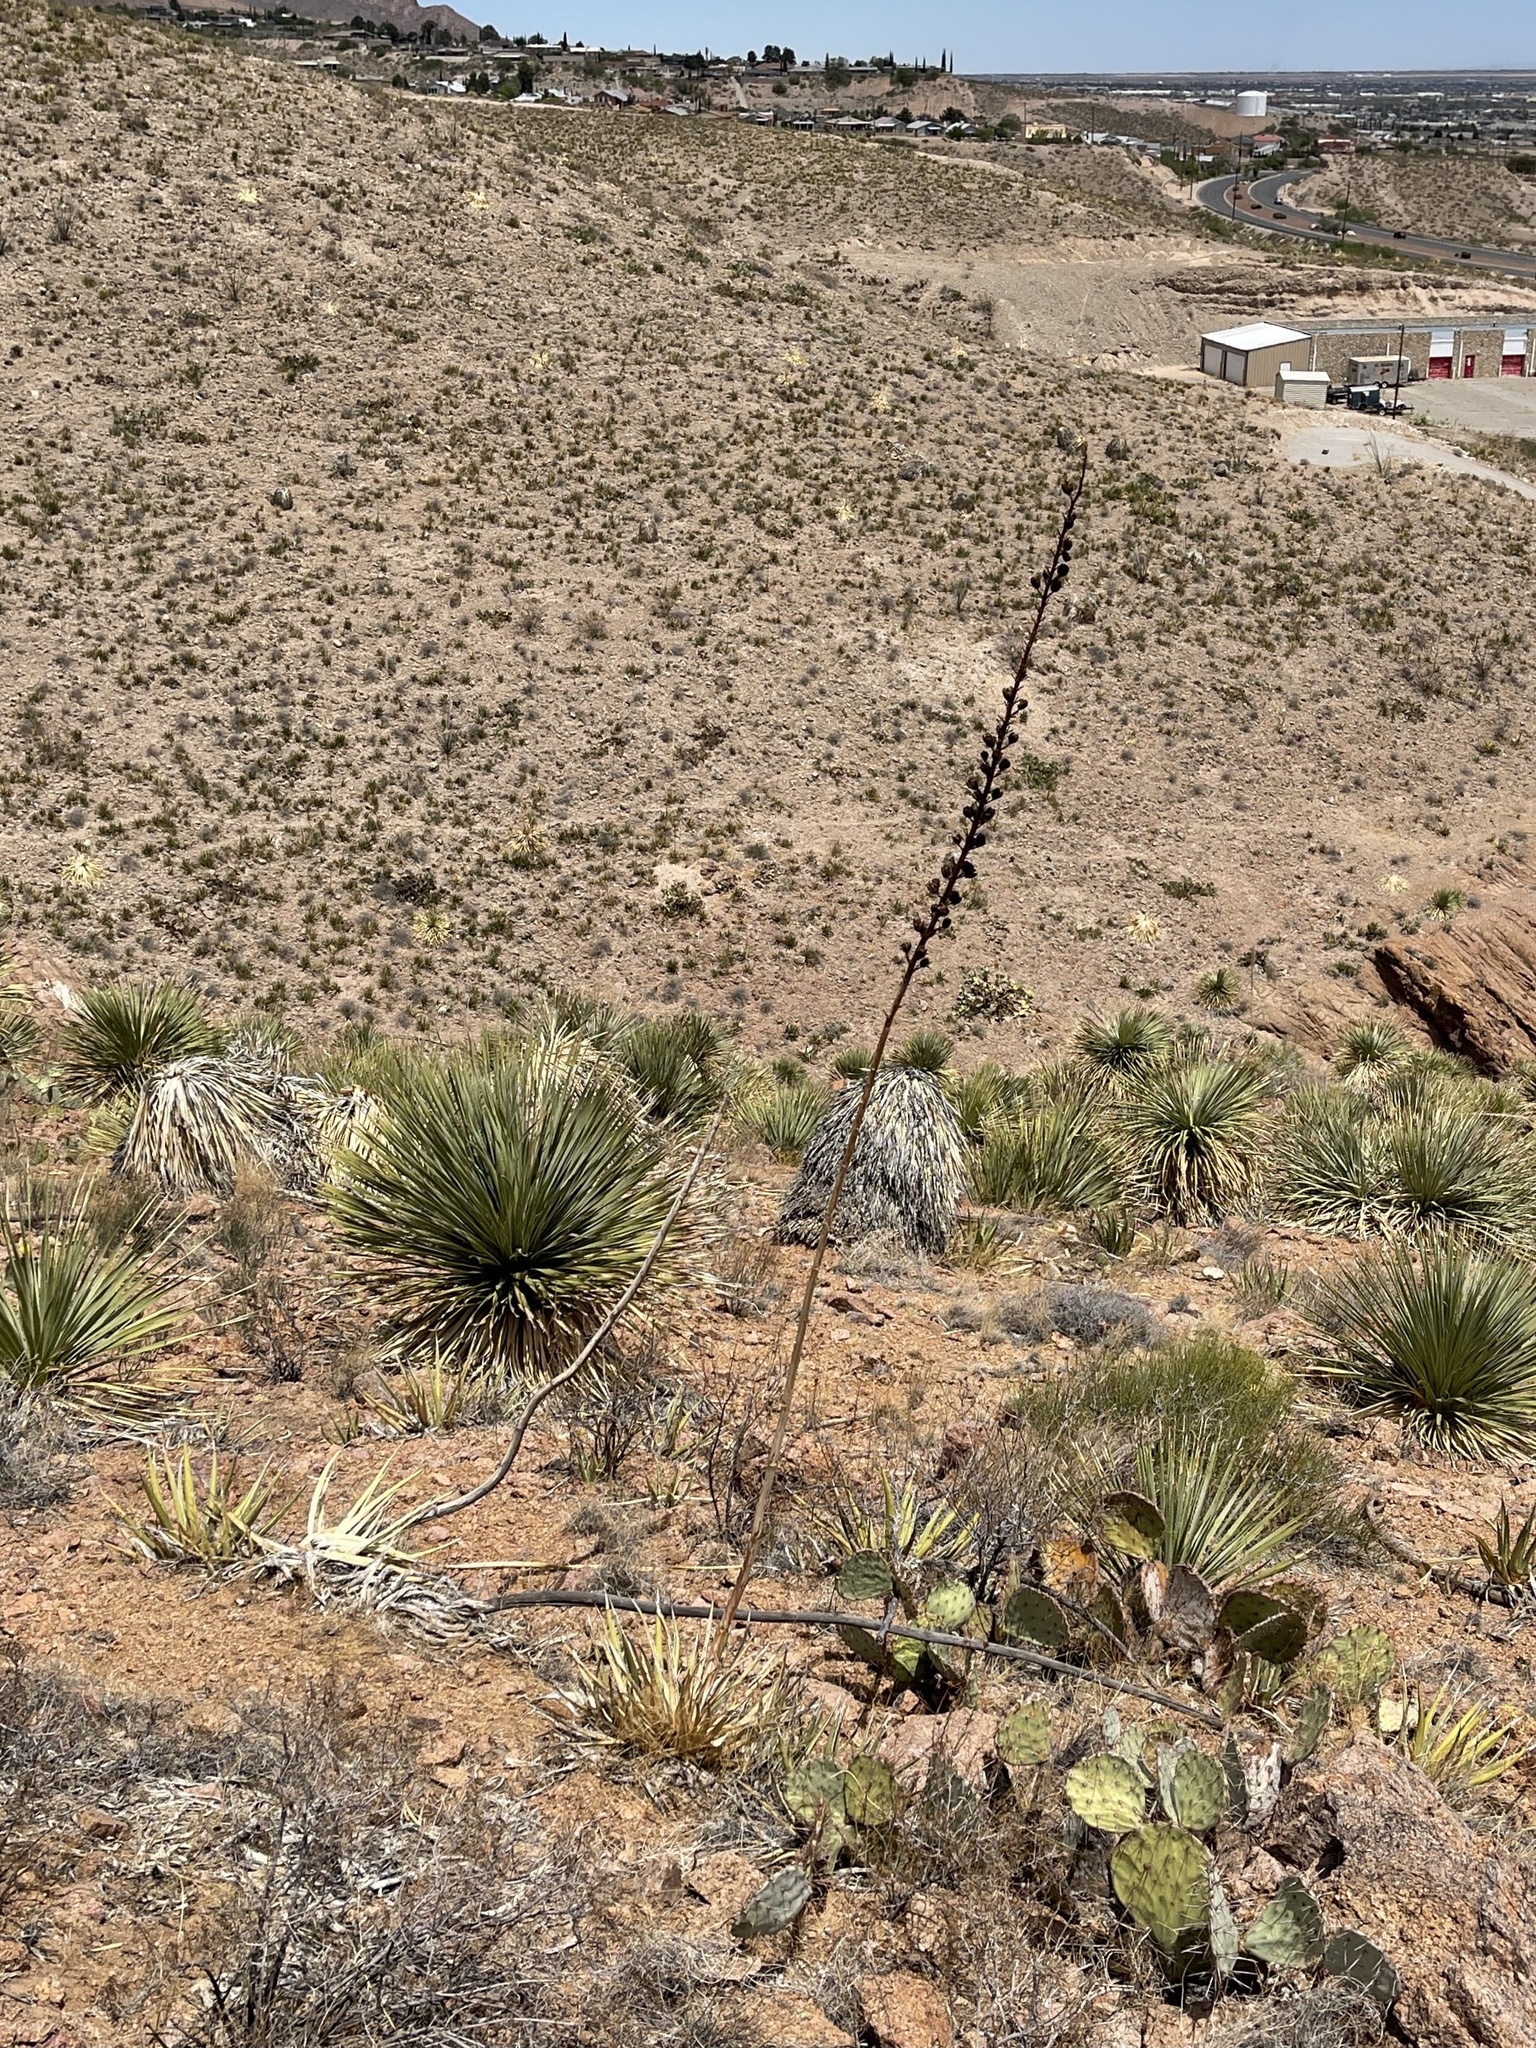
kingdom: Plantae
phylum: Tracheophyta
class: Liliopsida
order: Asparagales
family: Asparagaceae
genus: Agave
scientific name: Agave lechuguilla
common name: Lecheguilla agave
